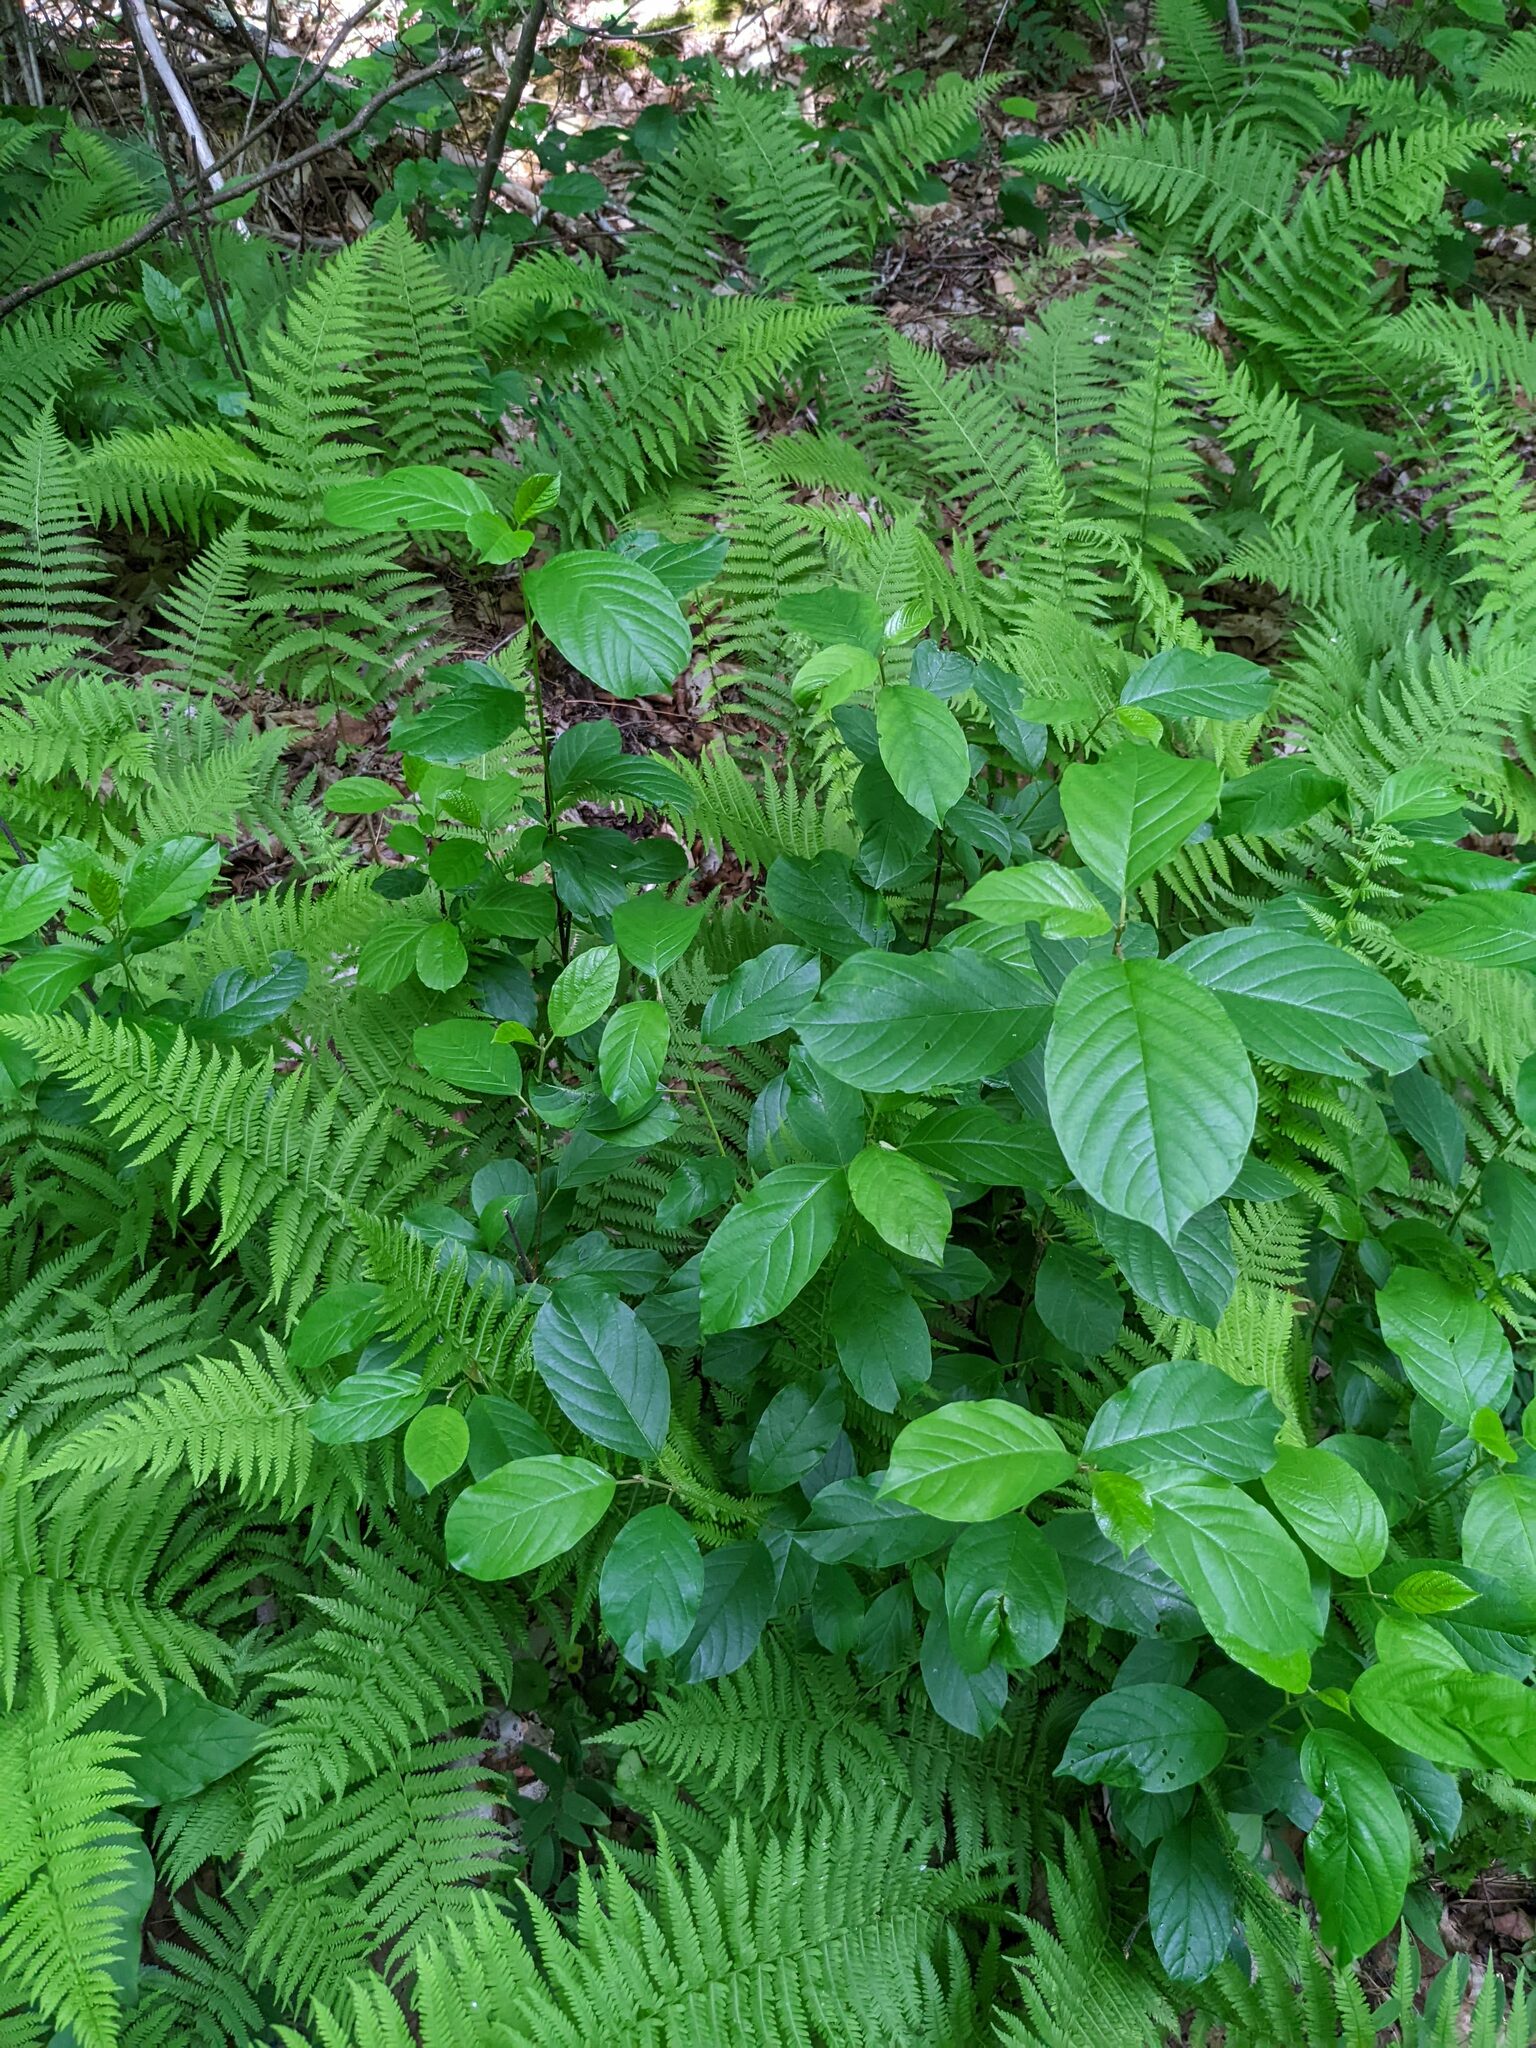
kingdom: Plantae
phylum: Tracheophyta
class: Magnoliopsida
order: Rosales
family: Rhamnaceae
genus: Frangula
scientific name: Frangula alnus
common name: Alder buckthorn
